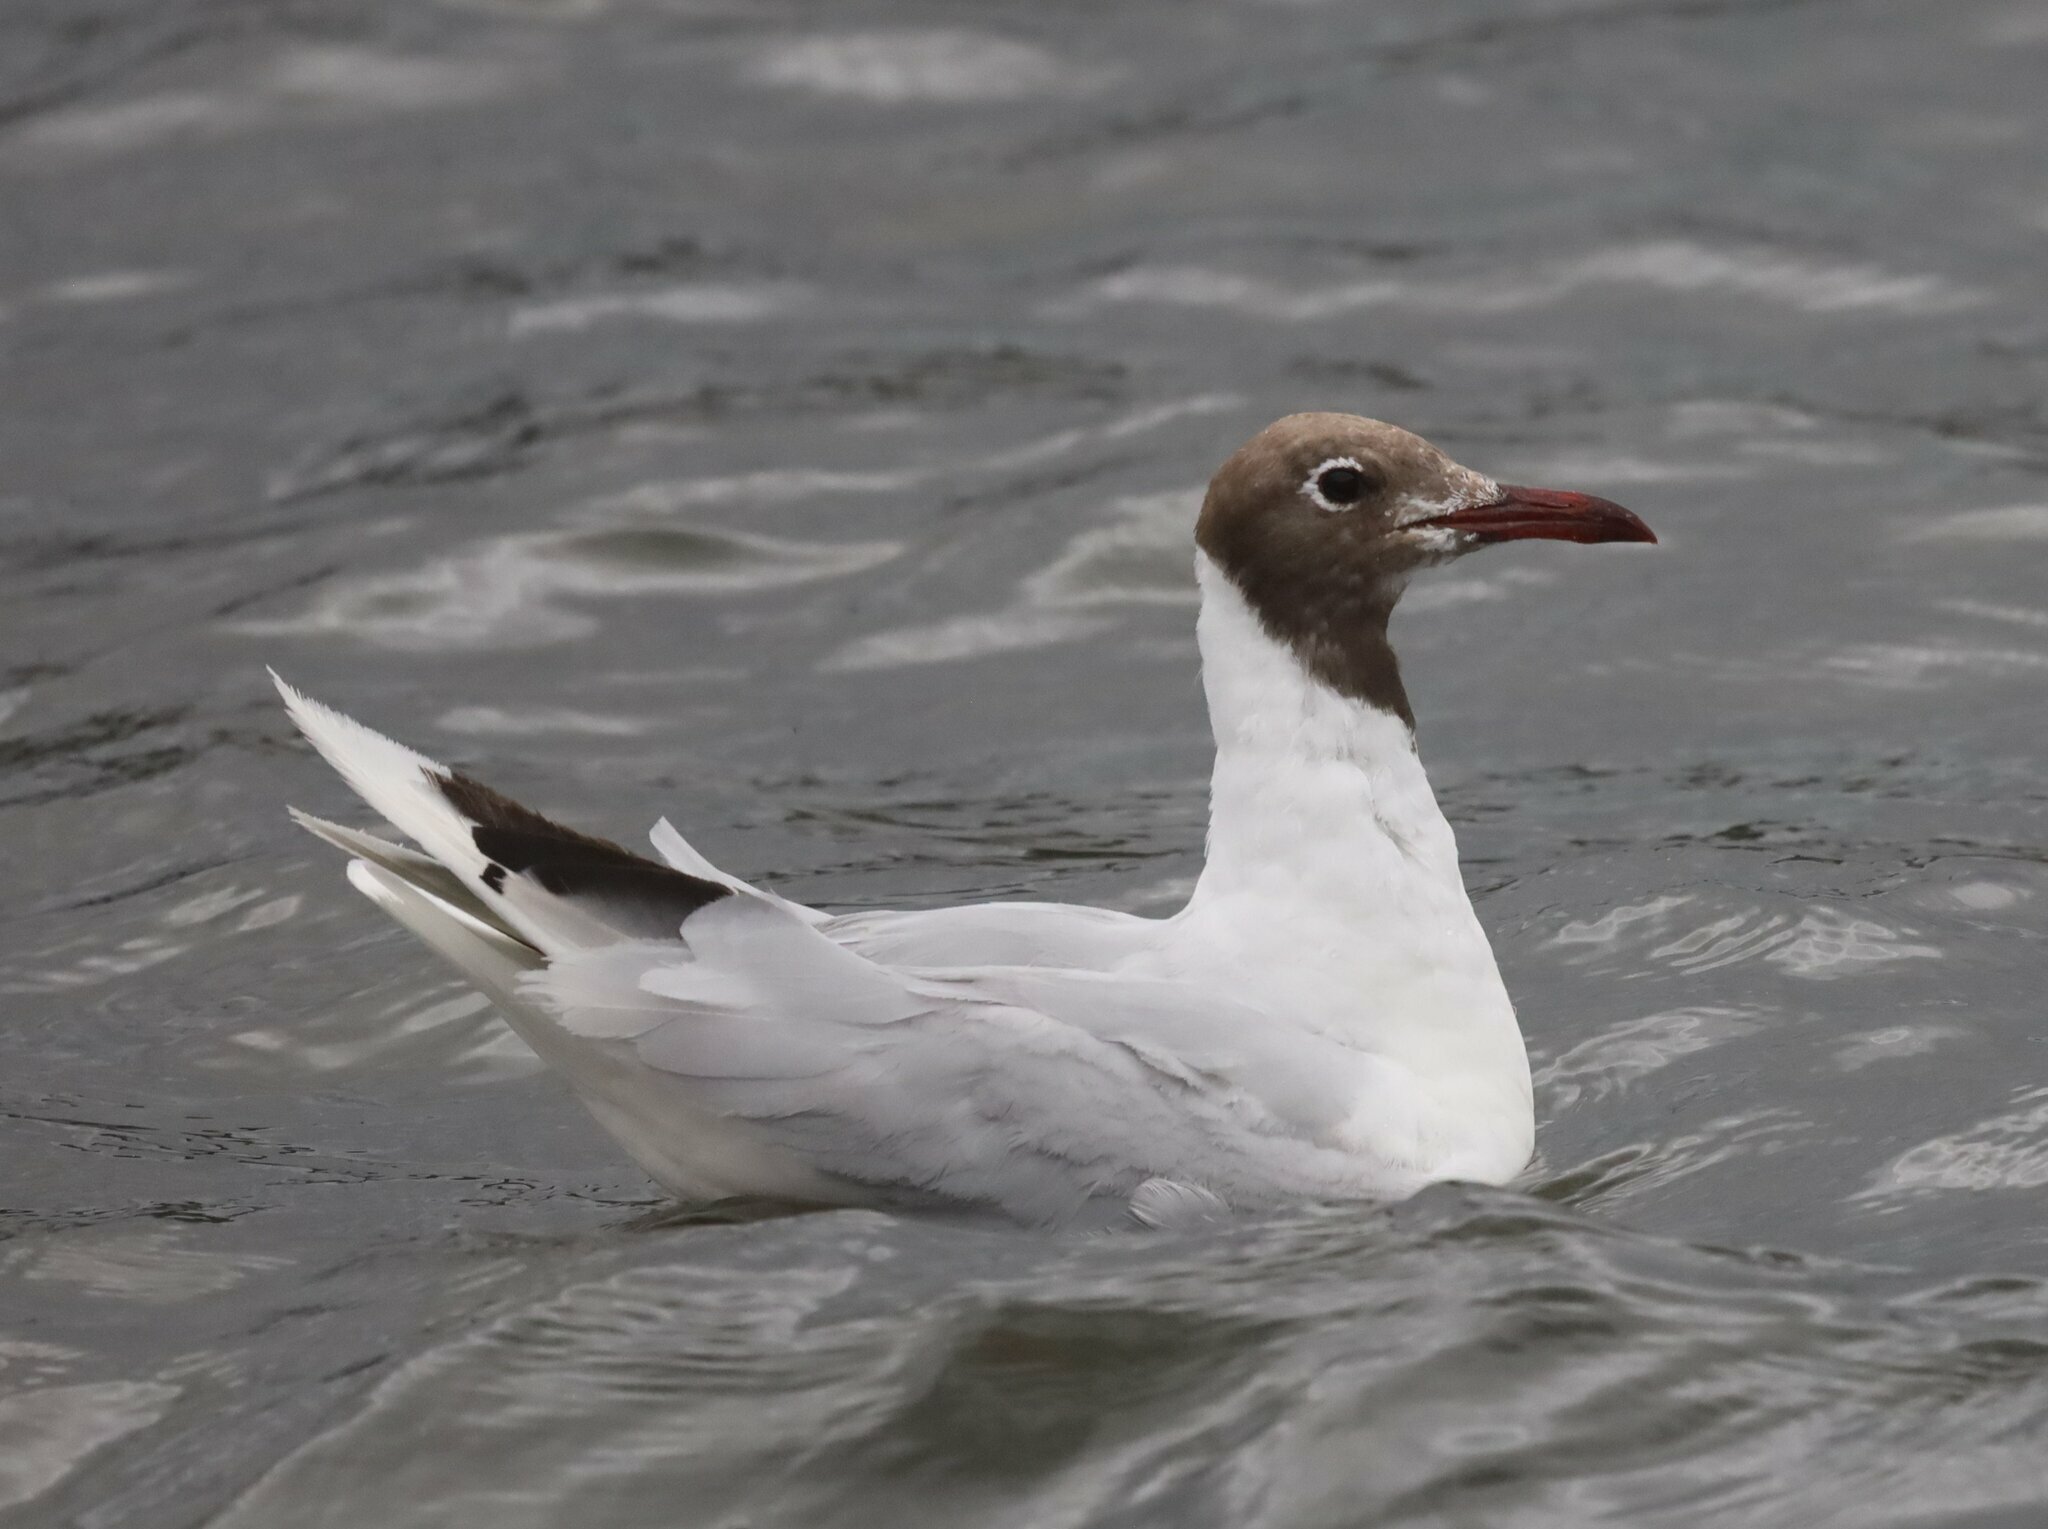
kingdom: Animalia
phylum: Chordata
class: Aves
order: Charadriiformes
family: Laridae
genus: Chroicocephalus
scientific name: Chroicocephalus maculipennis
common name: Brown-hooded gull
